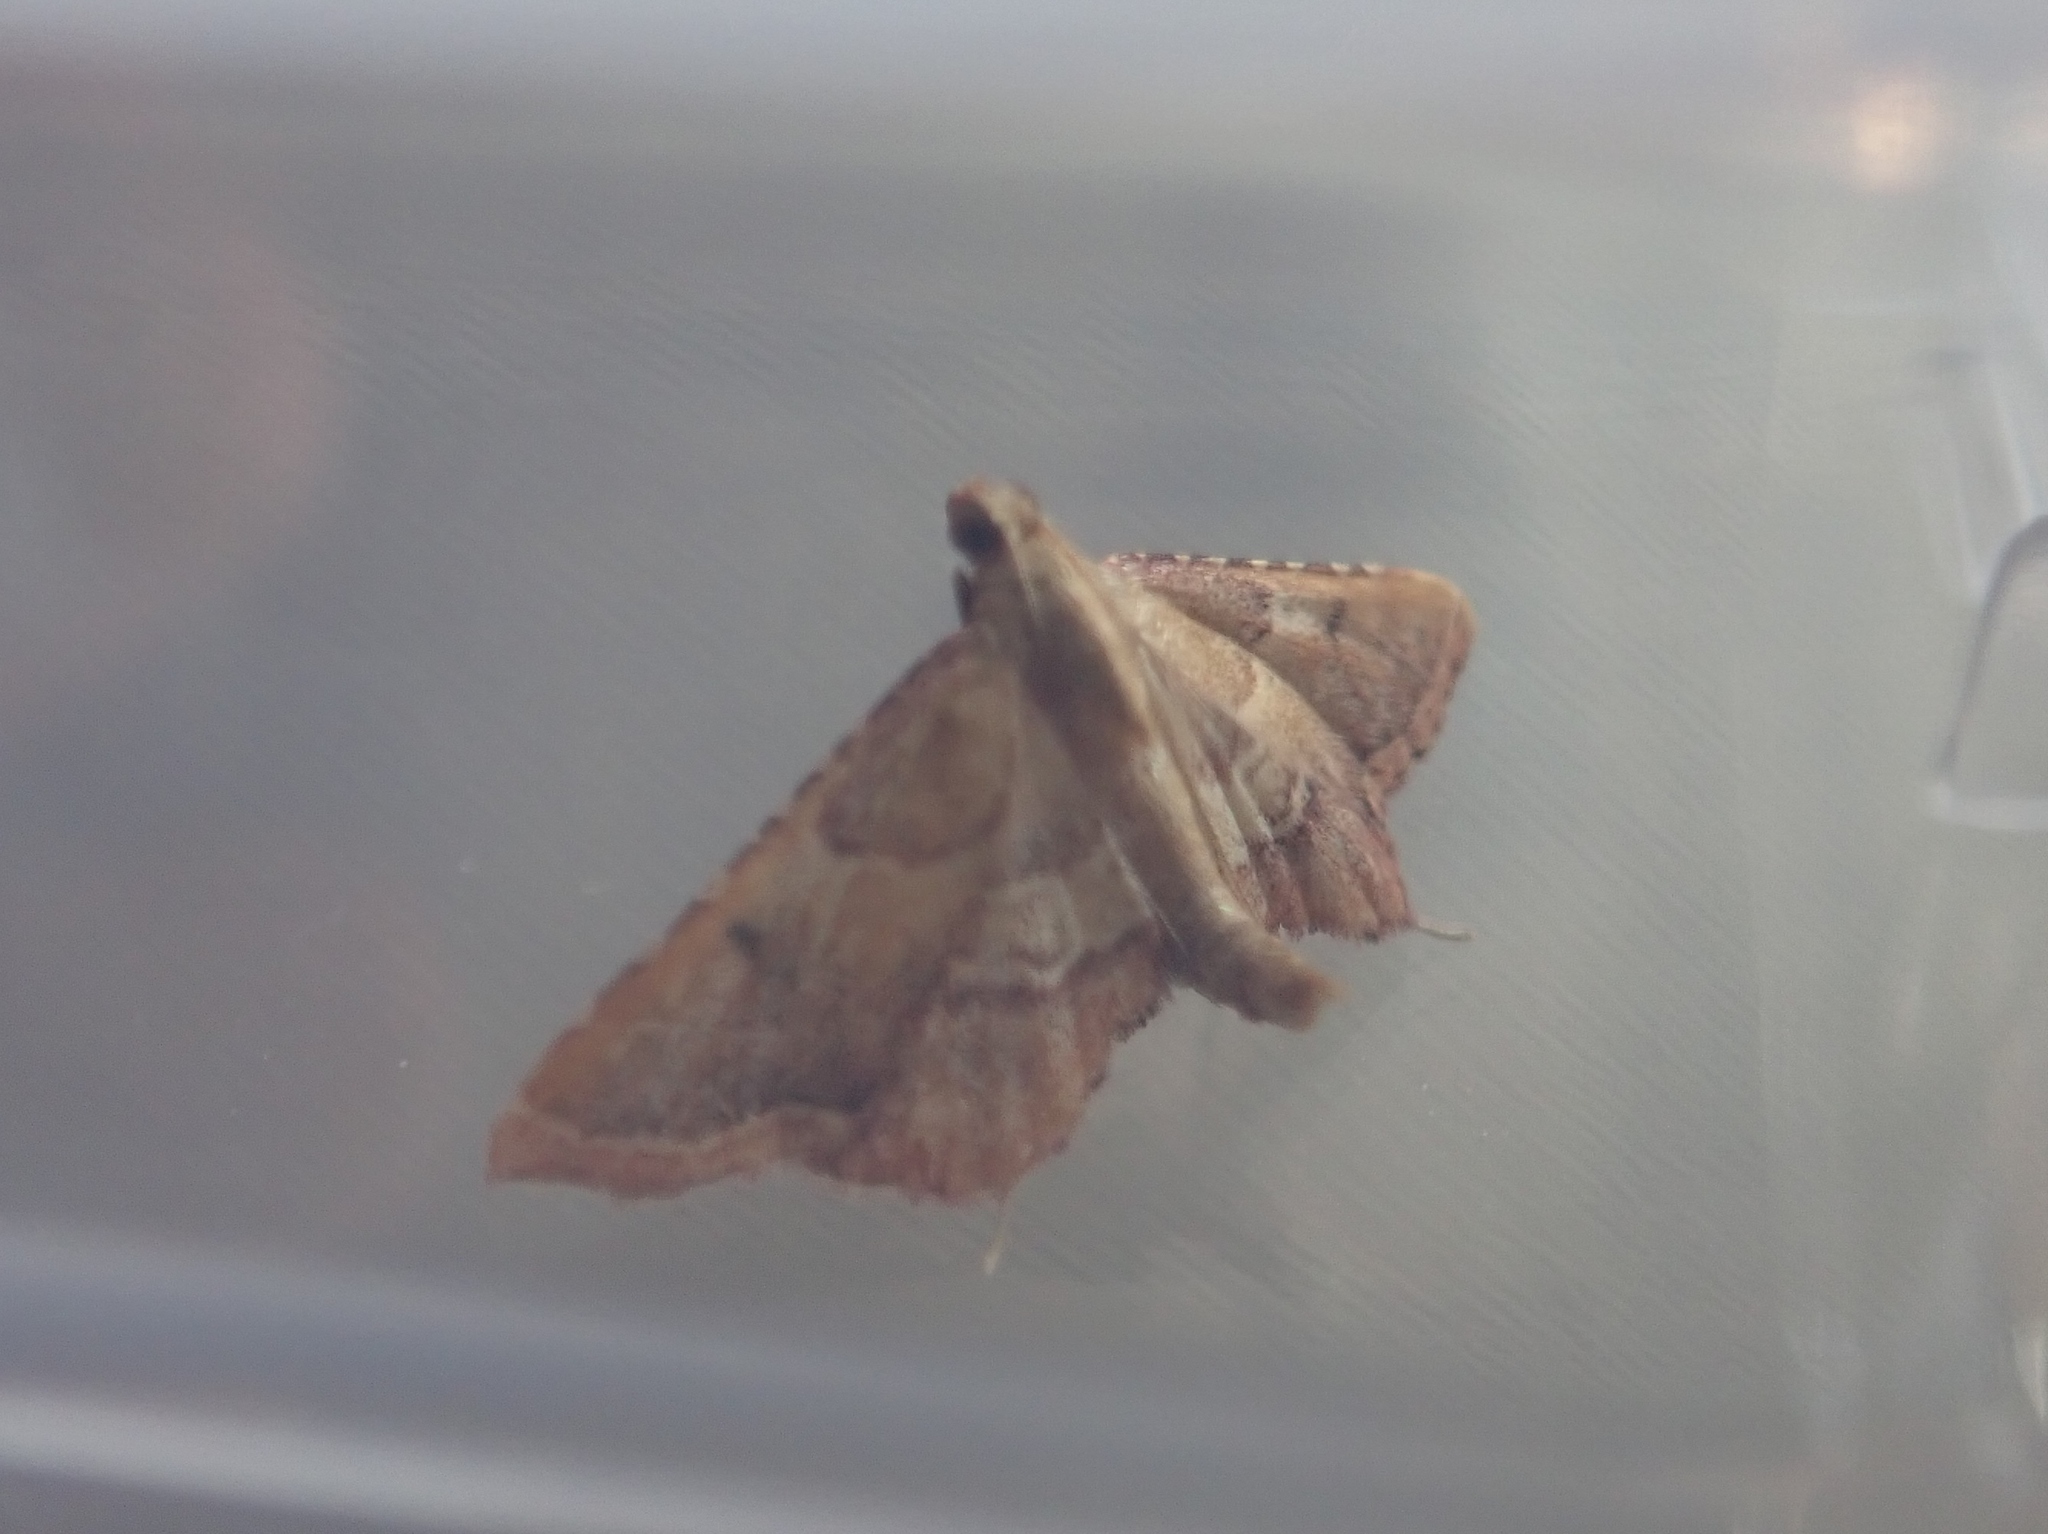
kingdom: Animalia
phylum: Arthropoda
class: Insecta
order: Lepidoptera
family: Pyralidae
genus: Endotricha
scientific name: Endotricha flammealis
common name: Rosy tabby
